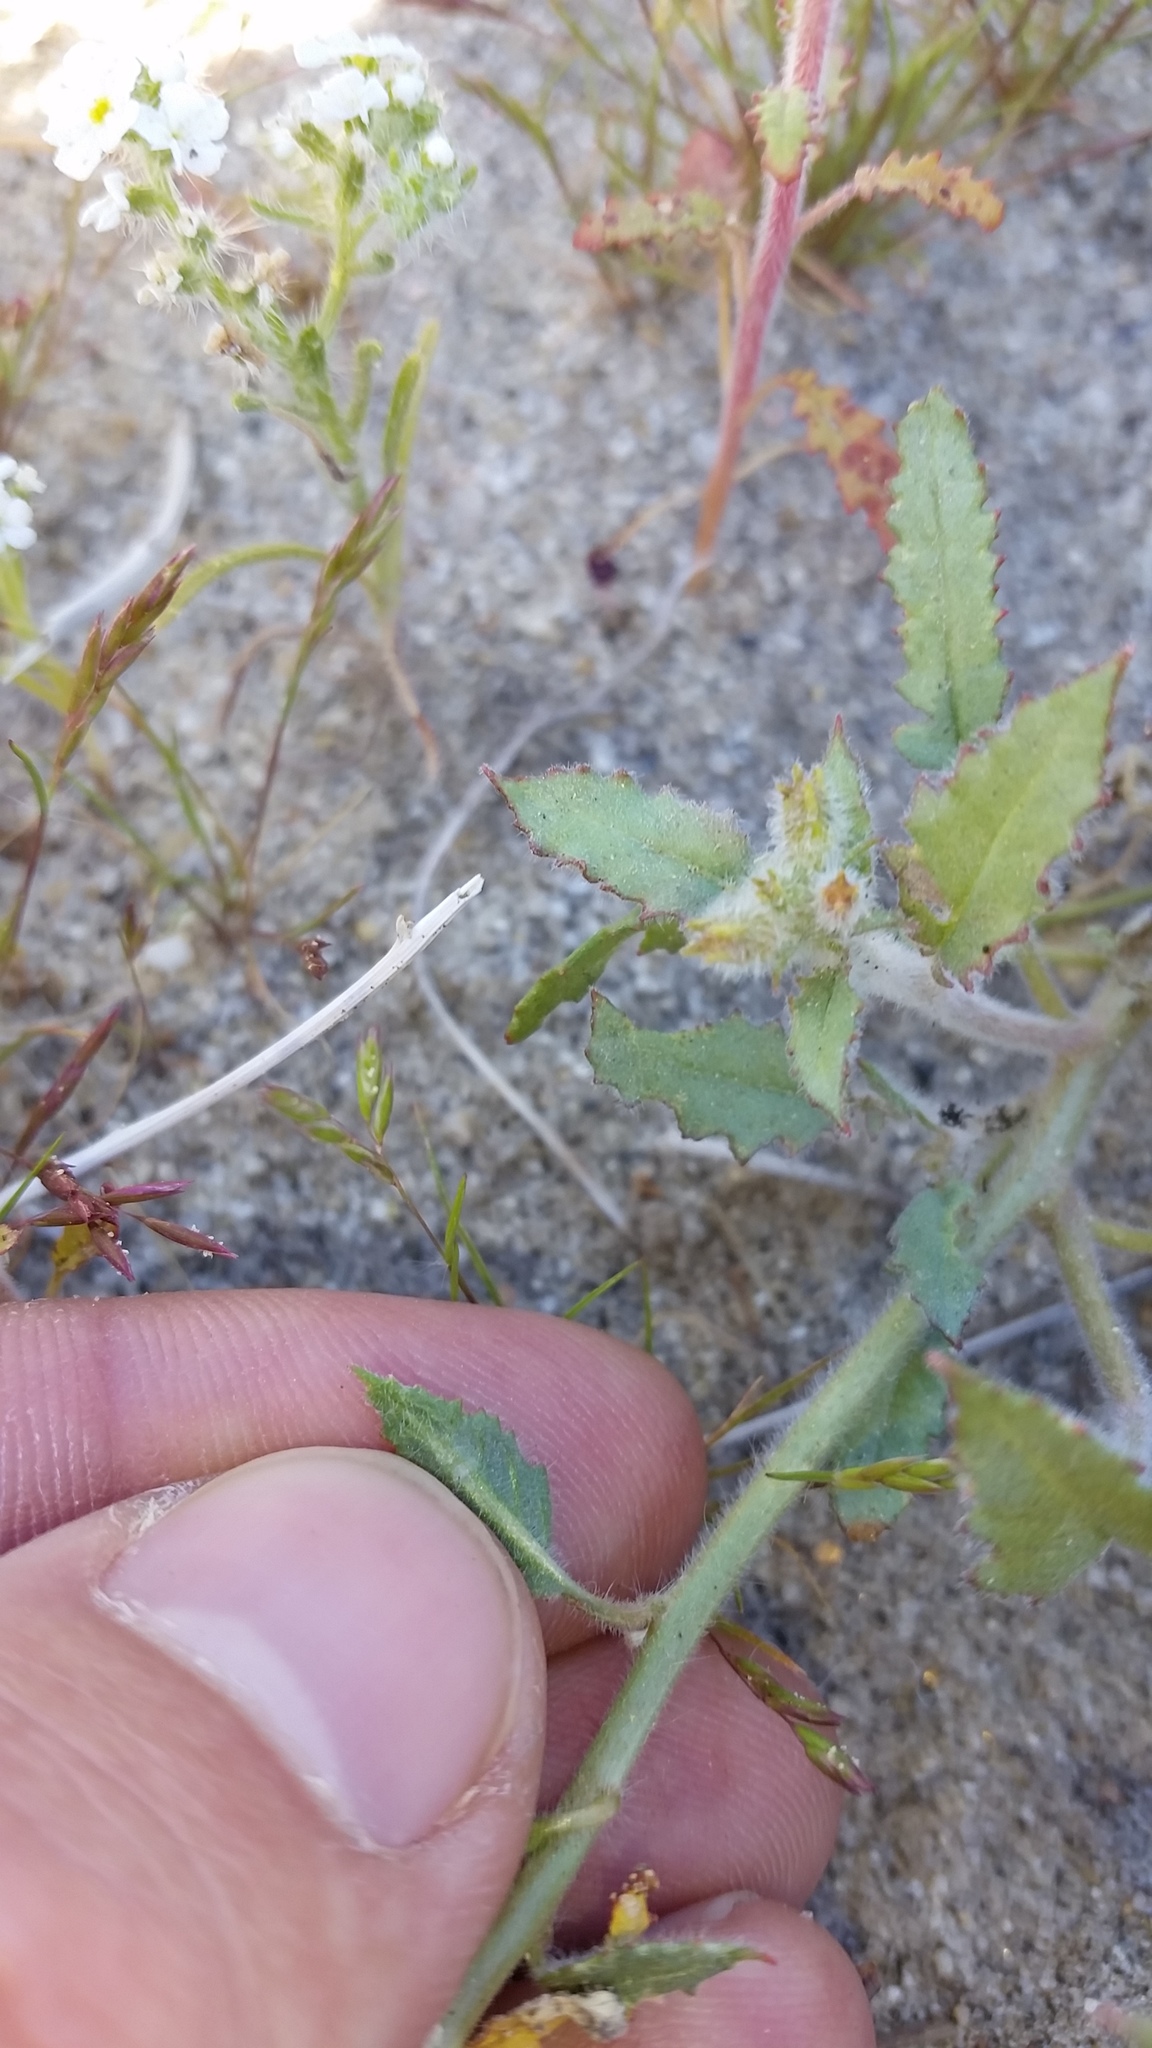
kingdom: Plantae
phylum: Tracheophyta
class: Magnoliopsida
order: Myrtales
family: Onagraceae
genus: Chylismia
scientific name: Chylismia claviformis
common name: Browneyes
